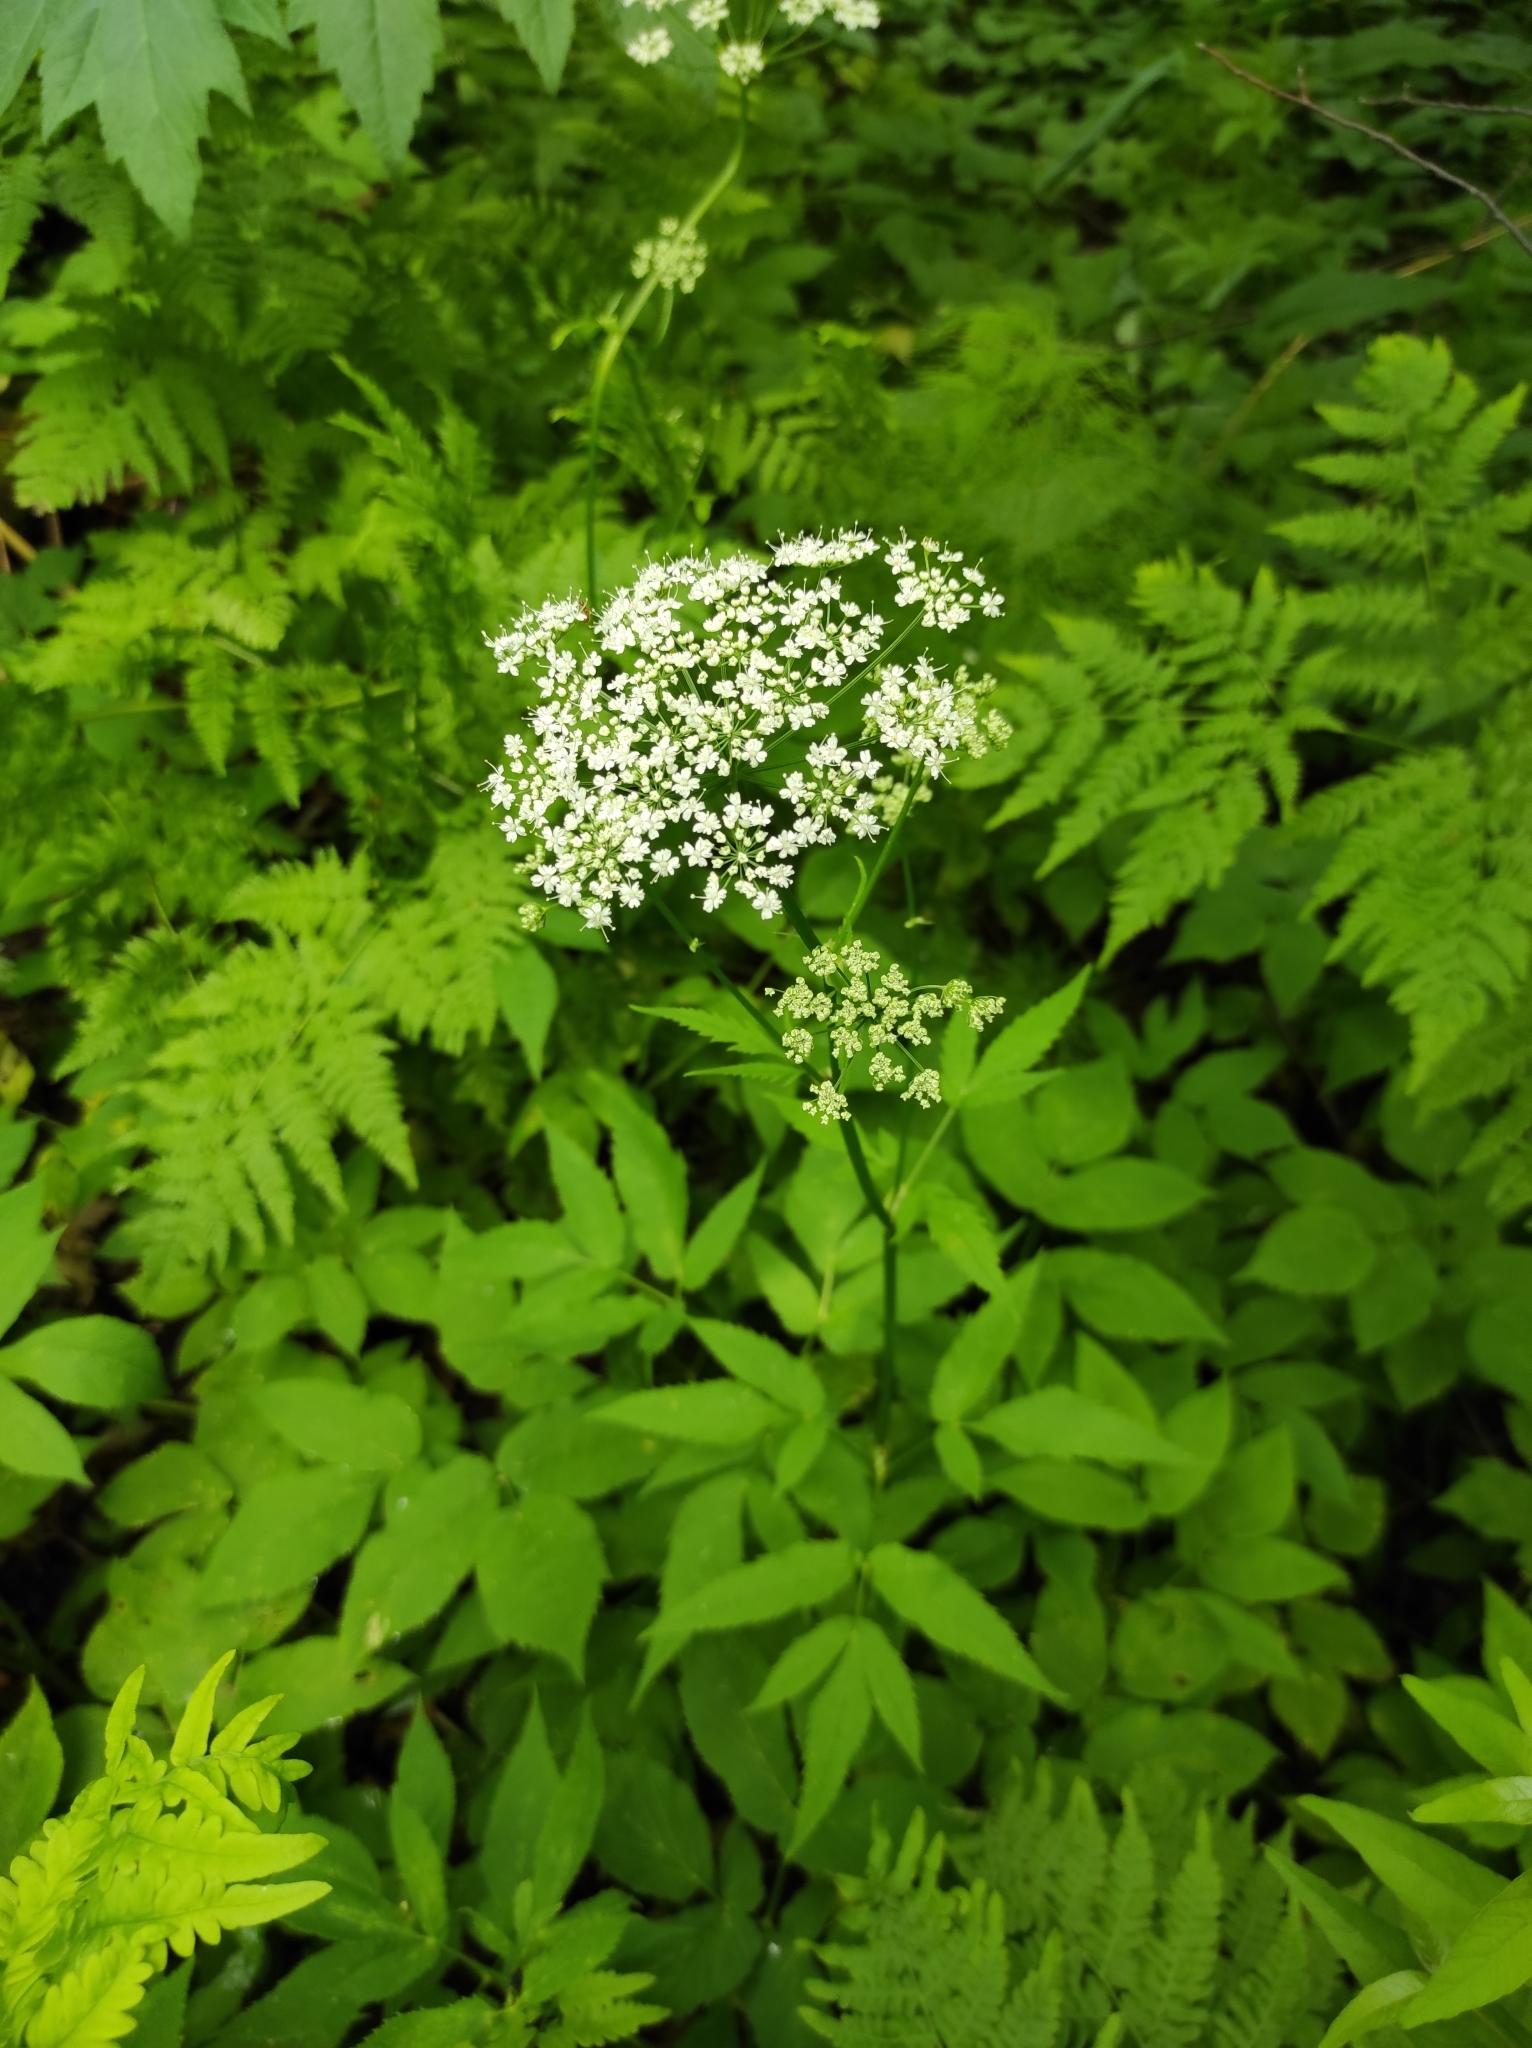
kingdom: Plantae
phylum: Tracheophyta
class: Magnoliopsida
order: Apiales
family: Apiaceae
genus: Aegopodium
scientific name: Aegopodium podagraria
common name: Ground-elder
